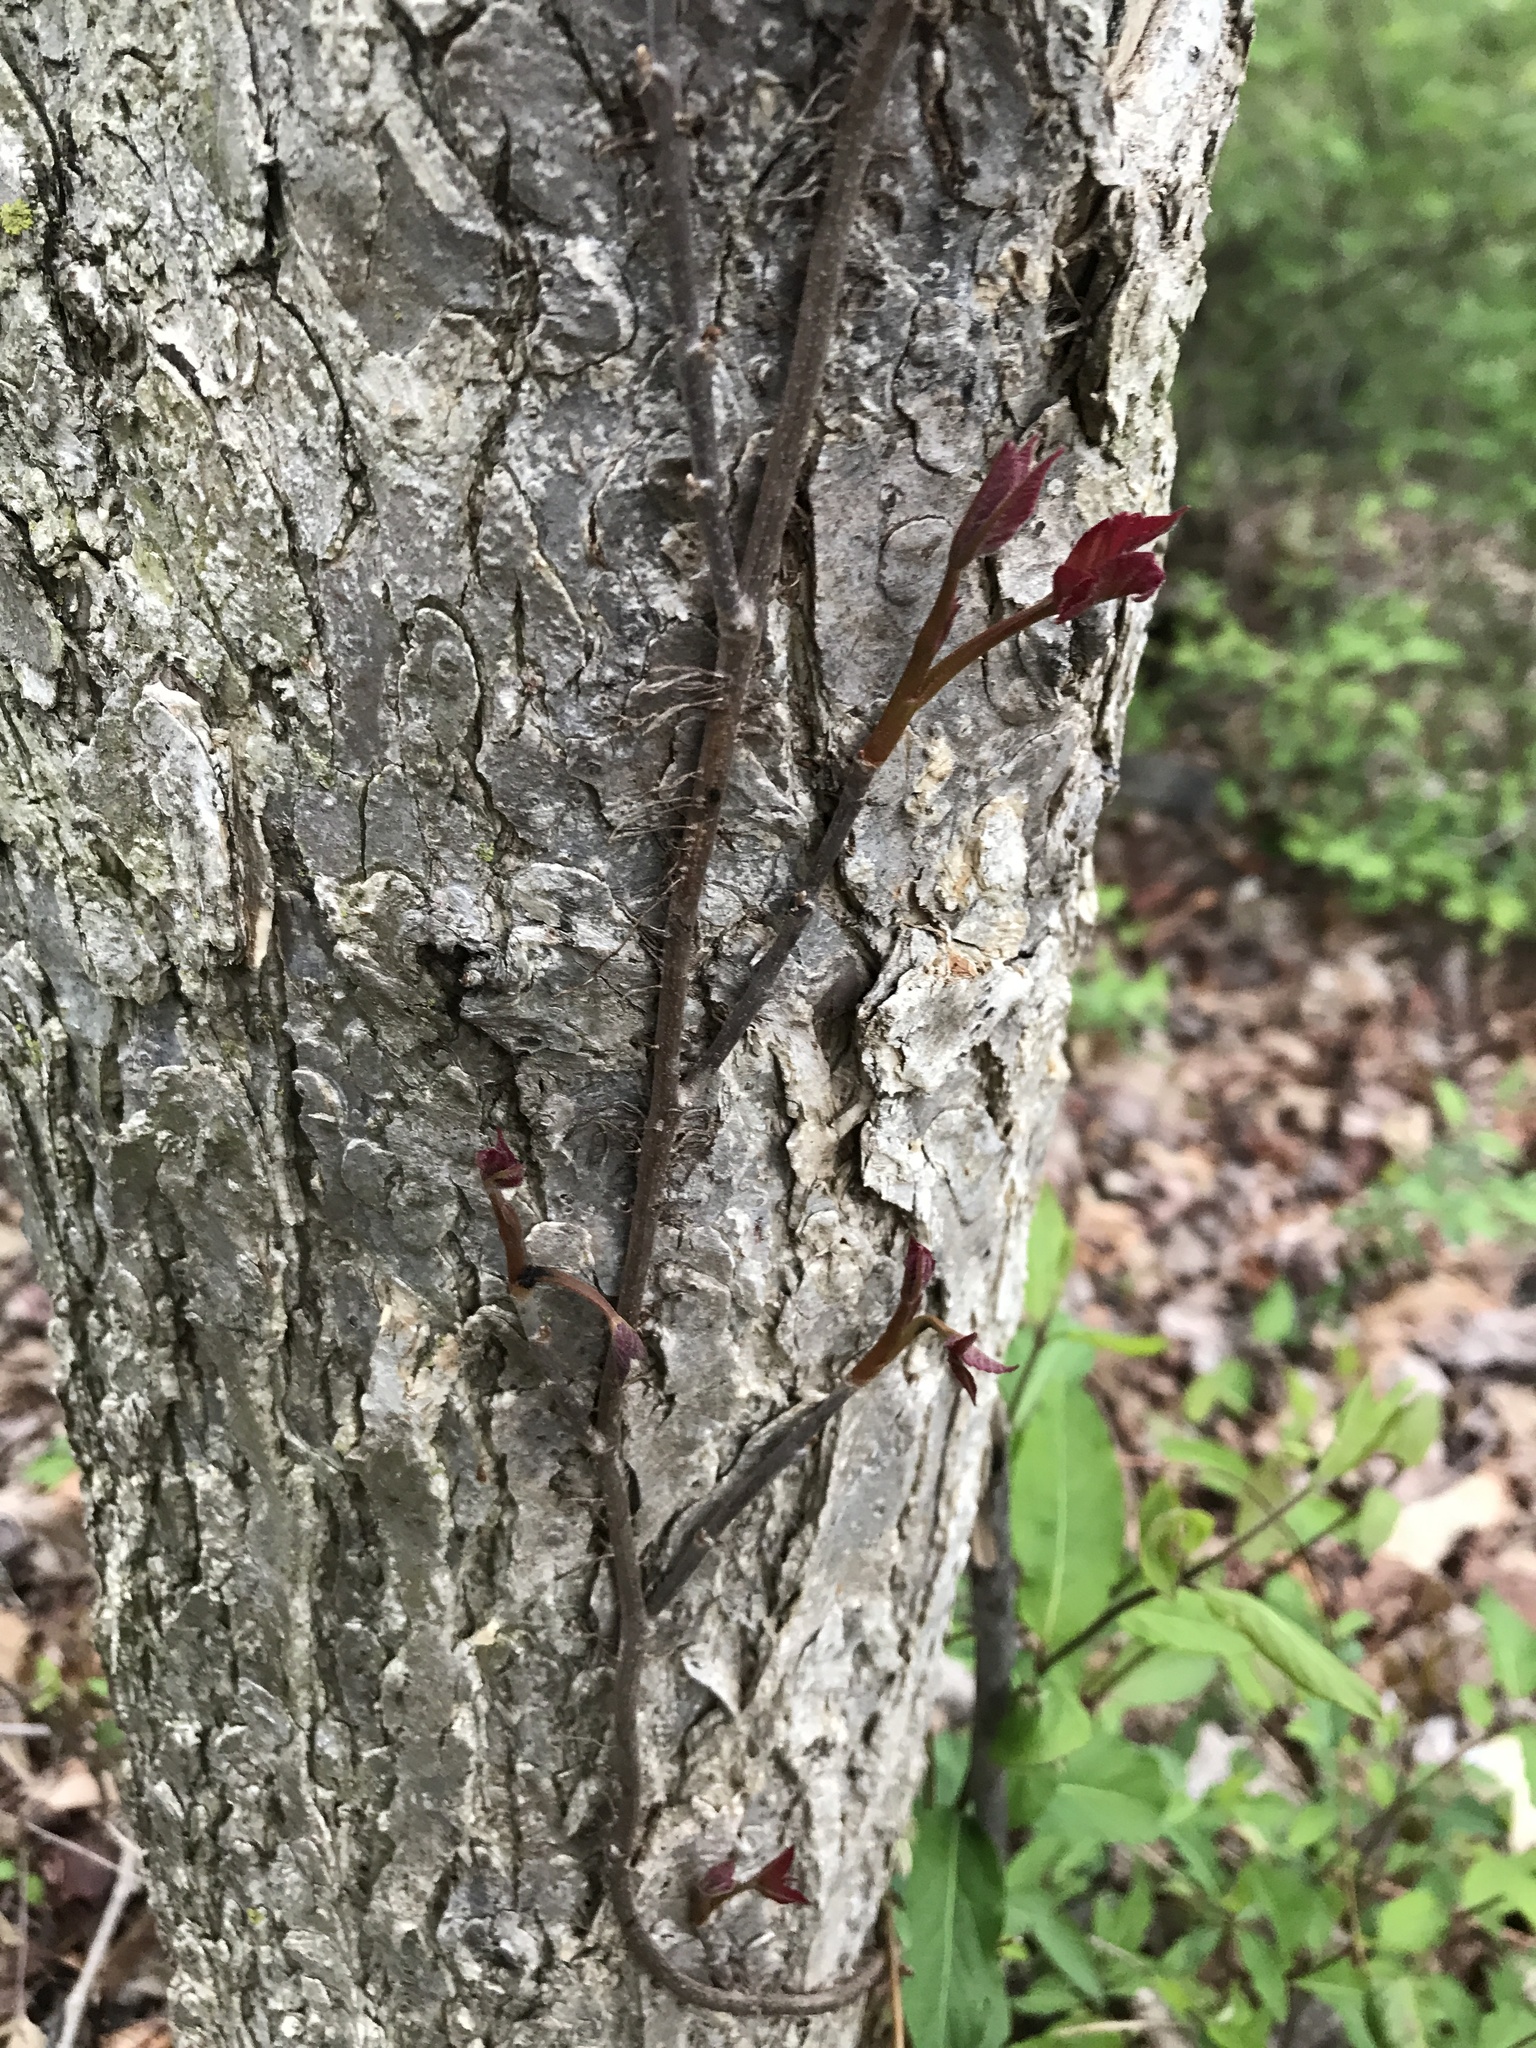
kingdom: Plantae
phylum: Tracheophyta
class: Magnoliopsida
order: Sapindales
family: Anacardiaceae
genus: Toxicodendron
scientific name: Toxicodendron radicans
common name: Poison ivy
